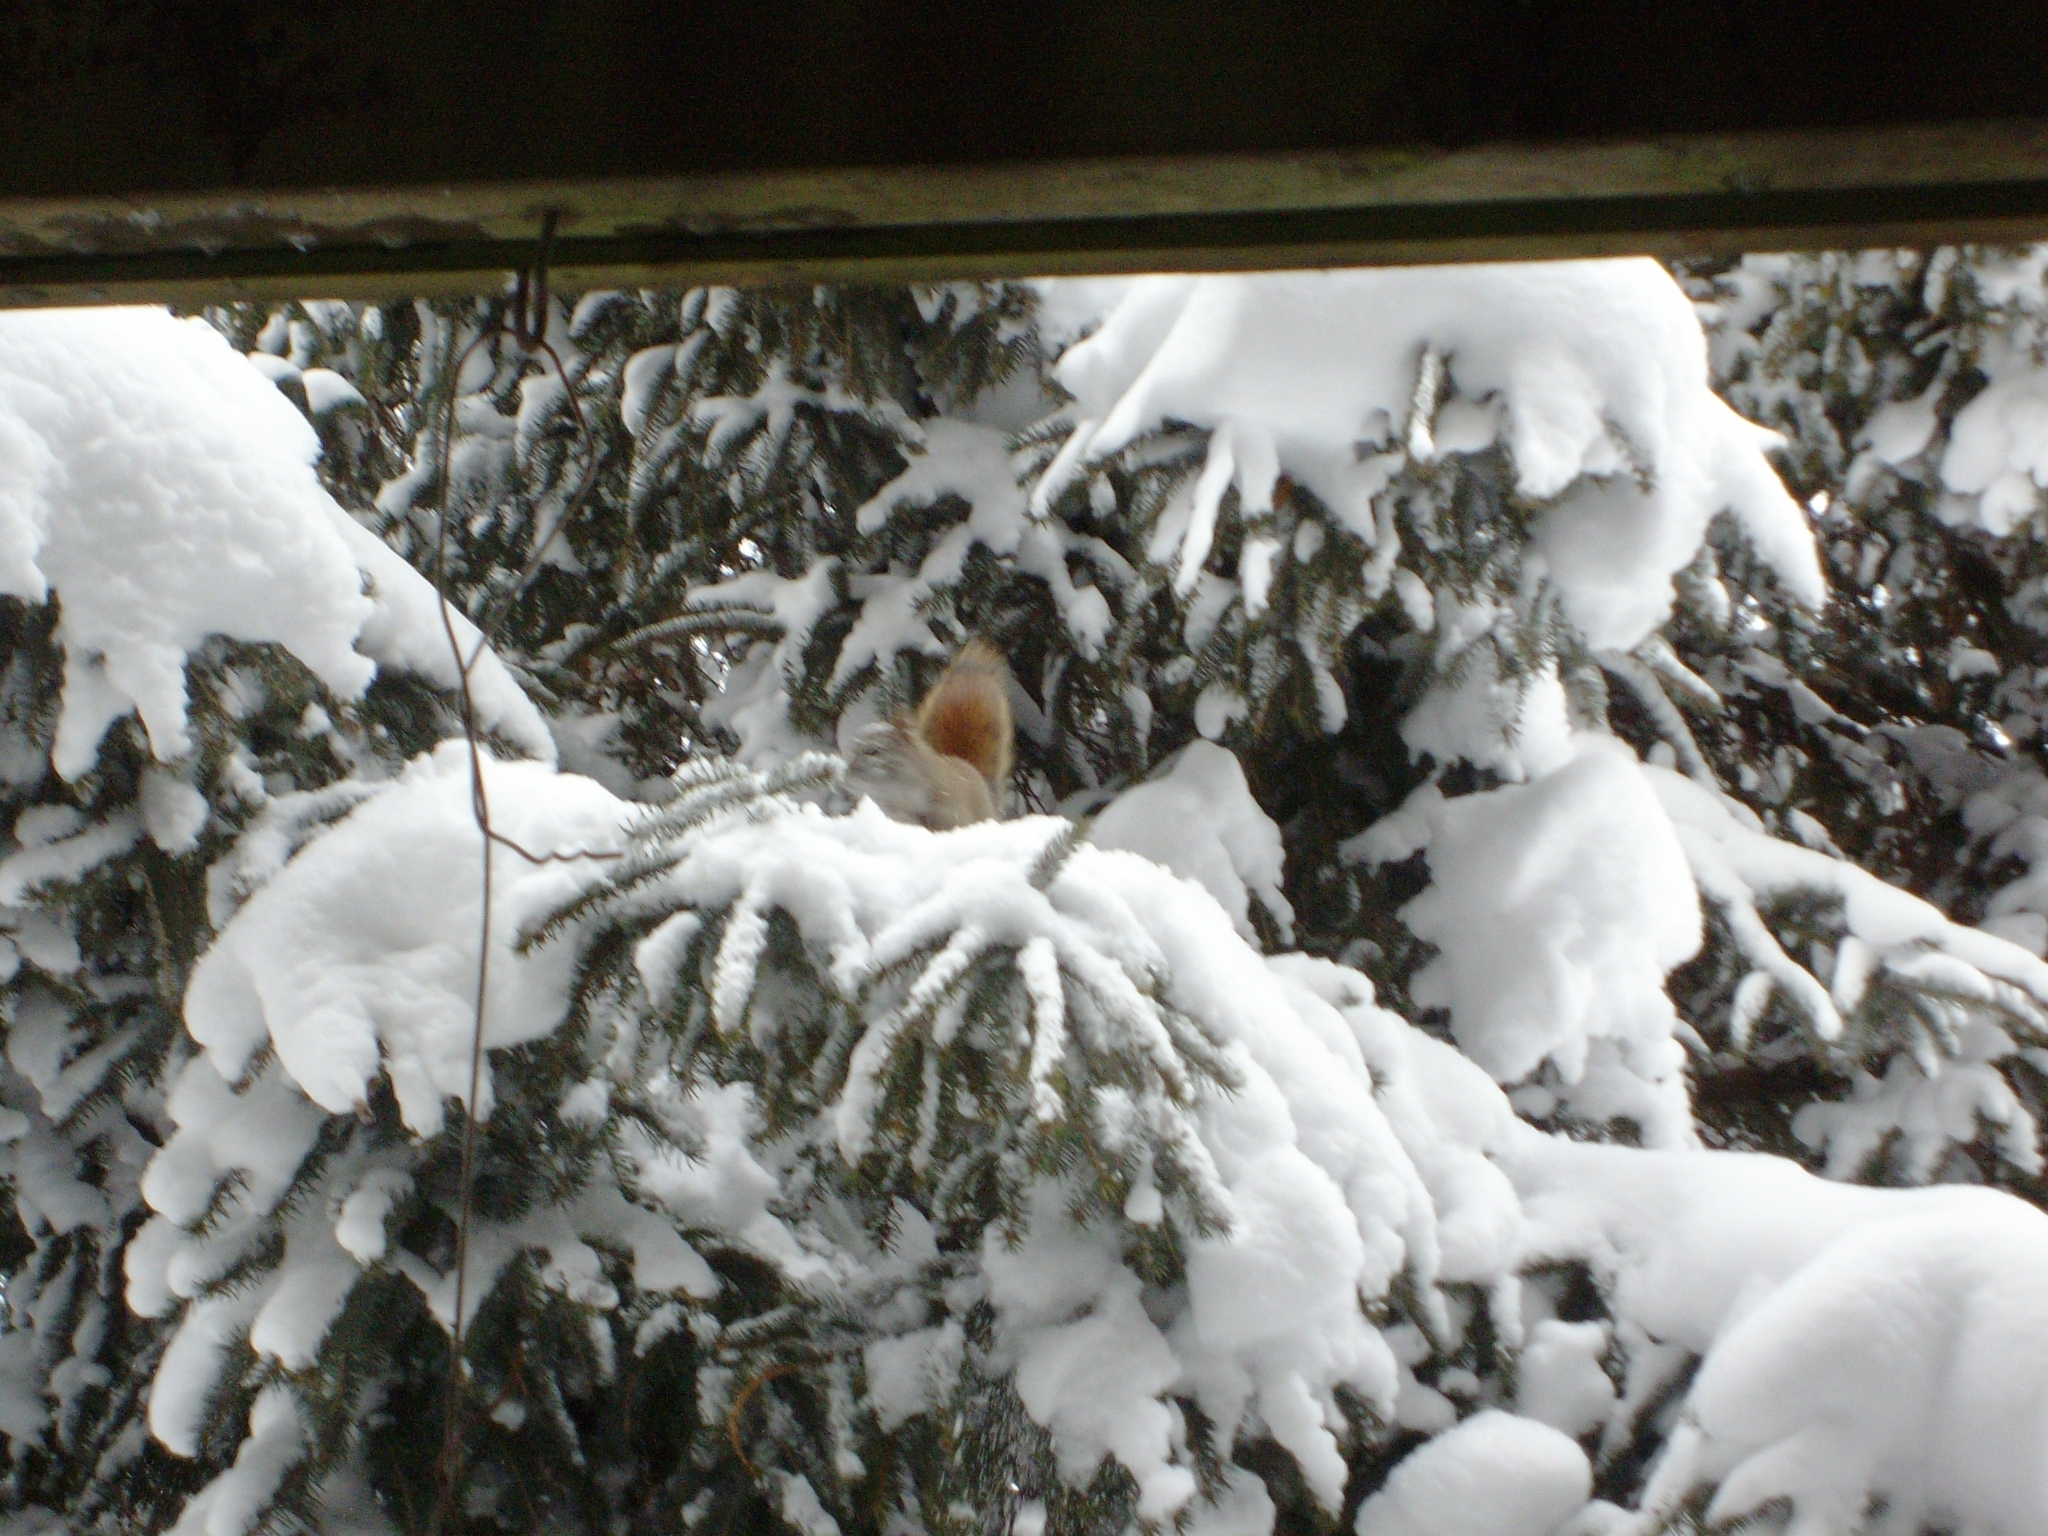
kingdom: Animalia
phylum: Chordata
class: Mammalia
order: Rodentia
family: Sciuridae
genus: Tamiasciurus
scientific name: Tamiasciurus hudsonicus
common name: Red squirrel
